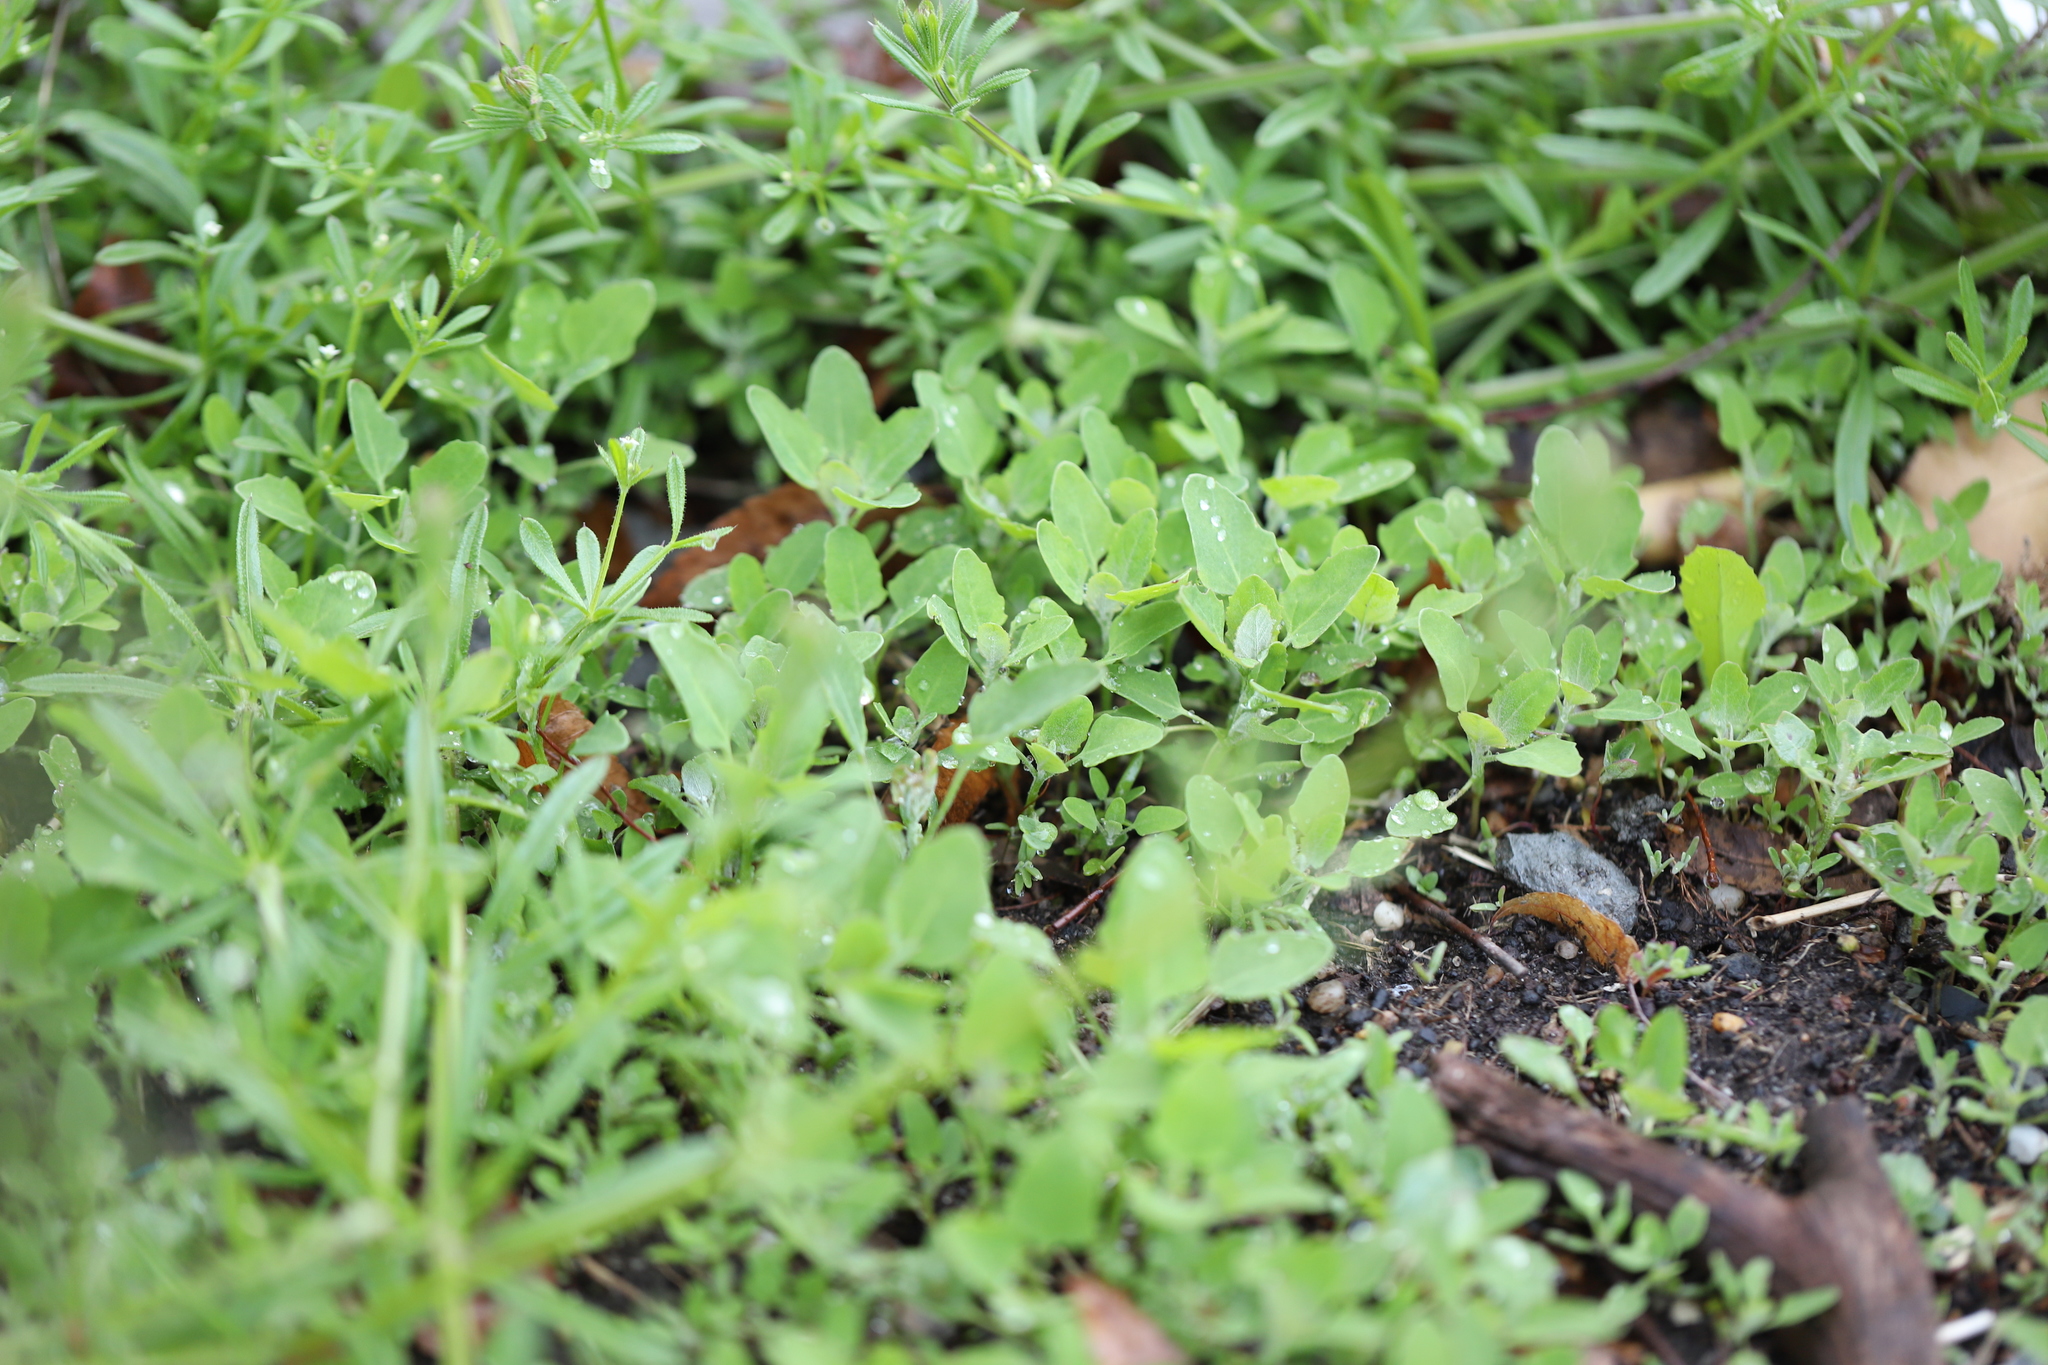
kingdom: Plantae
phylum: Tracheophyta
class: Magnoliopsida
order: Caryophyllales
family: Amaranthaceae
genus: Chenopodium
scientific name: Chenopodium album
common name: Fat-hen
